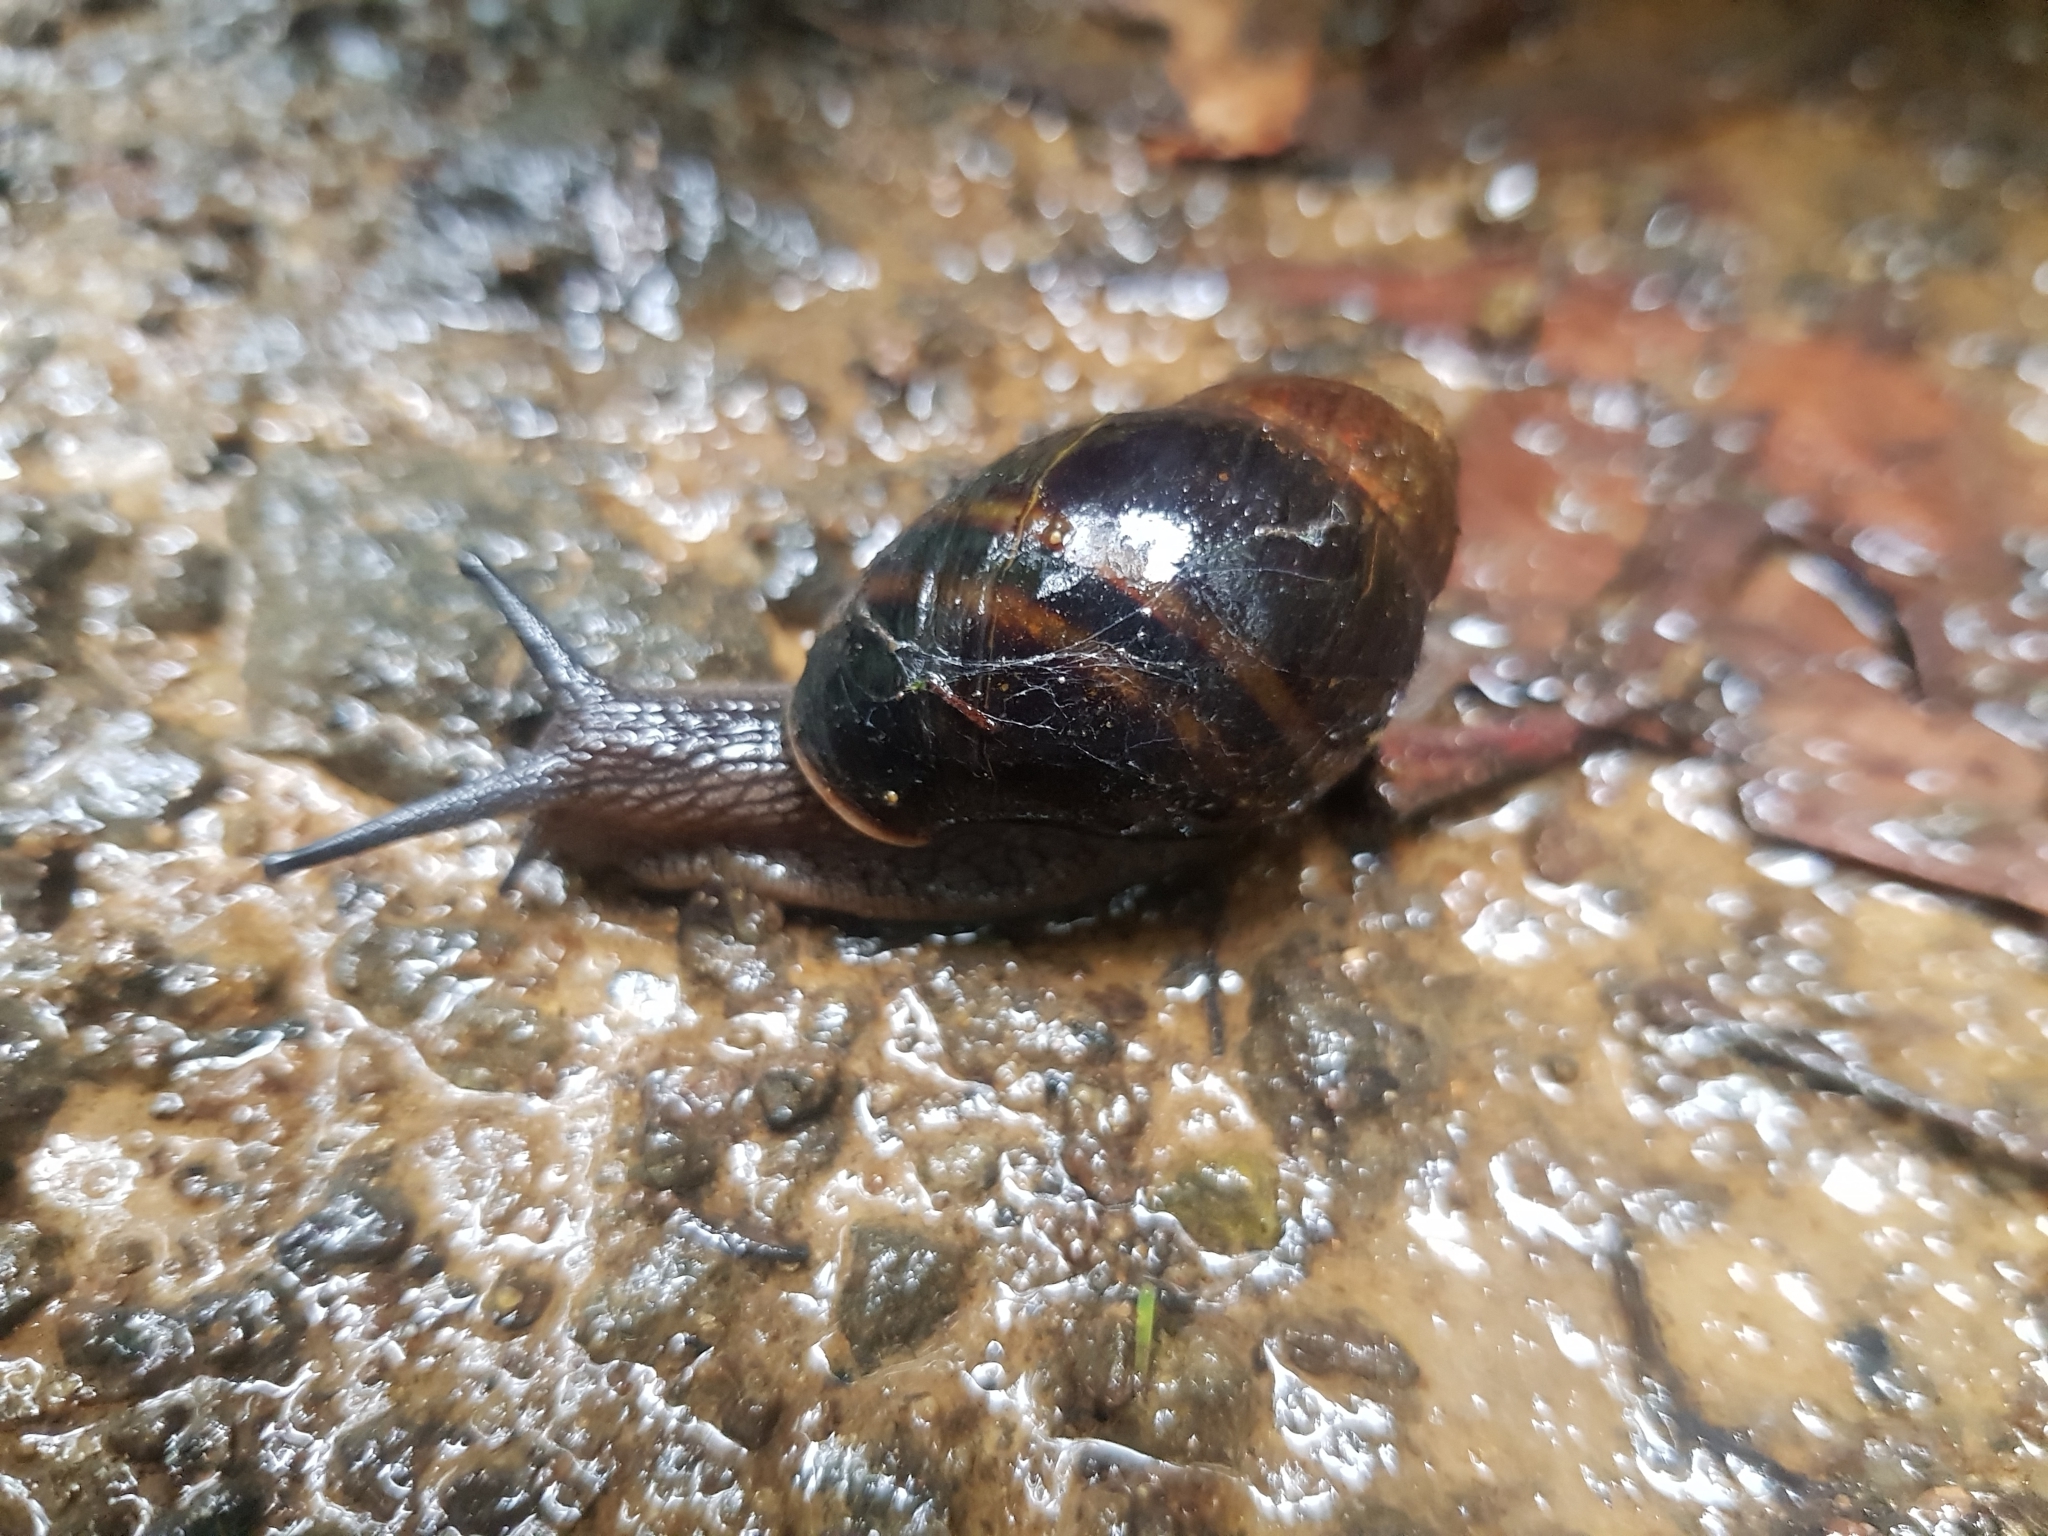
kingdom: Animalia
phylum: Mollusca
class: Gastropoda
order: Stylommatophora
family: Caryodidae
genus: Caryodes
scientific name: Caryodes dufresnii
